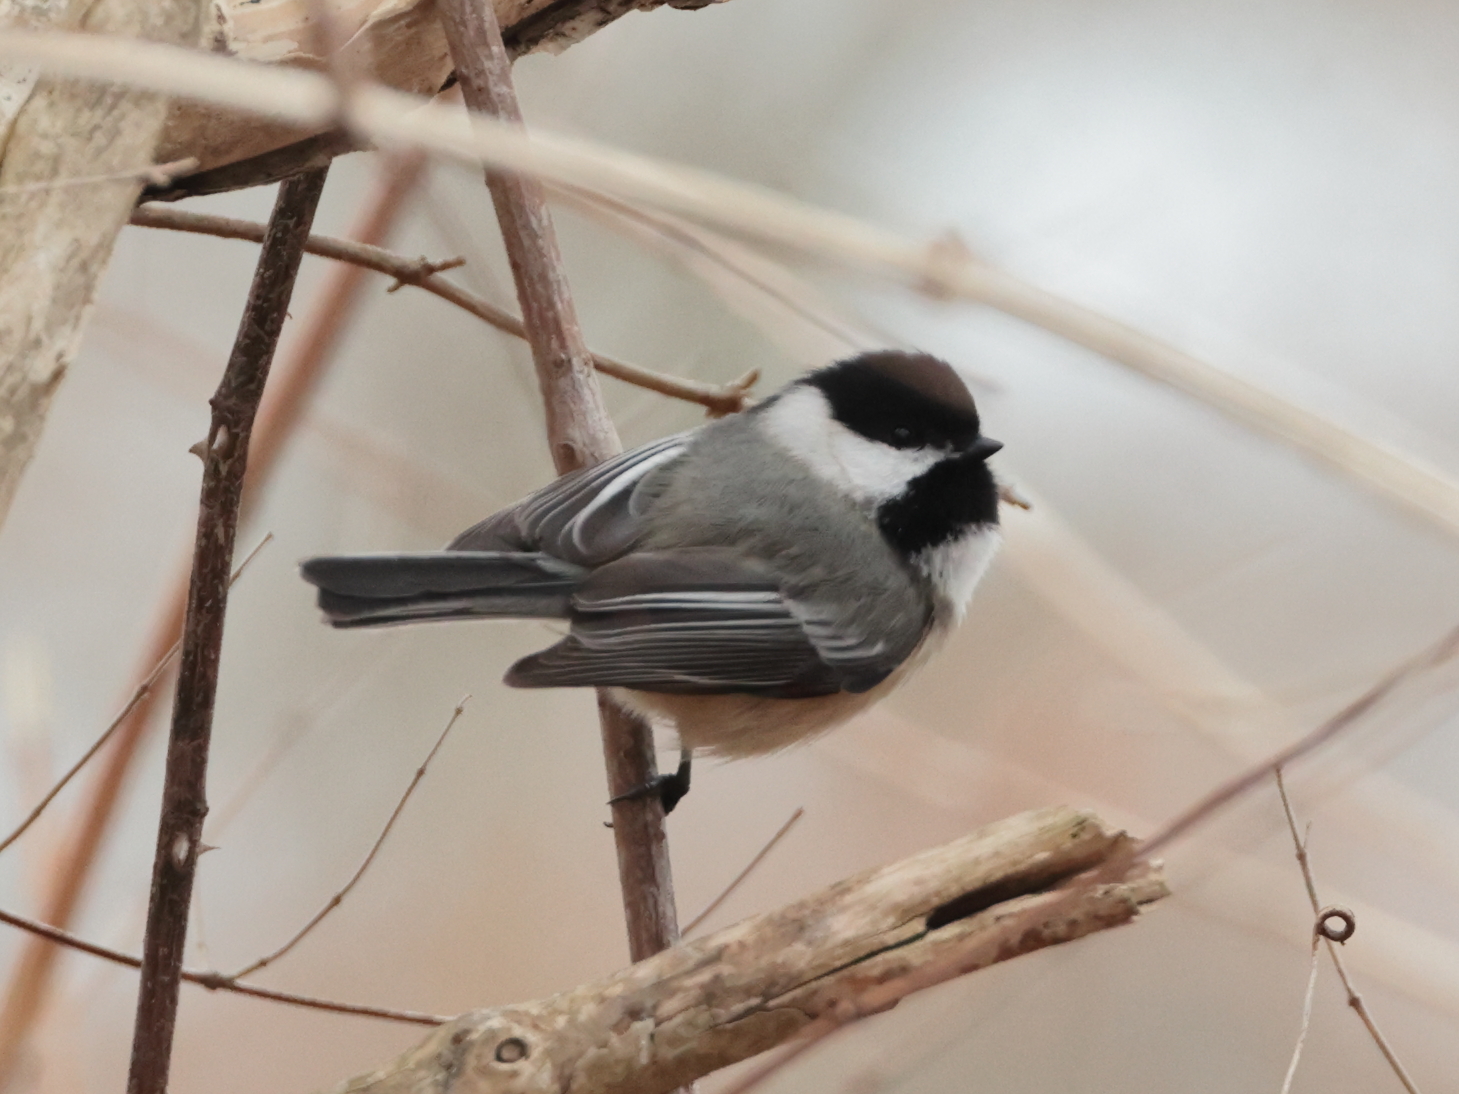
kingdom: Animalia
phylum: Chordata
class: Aves
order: Passeriformes
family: Paridae
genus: Poecile
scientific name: Poecile atricapillus
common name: Black-capped chickadee
